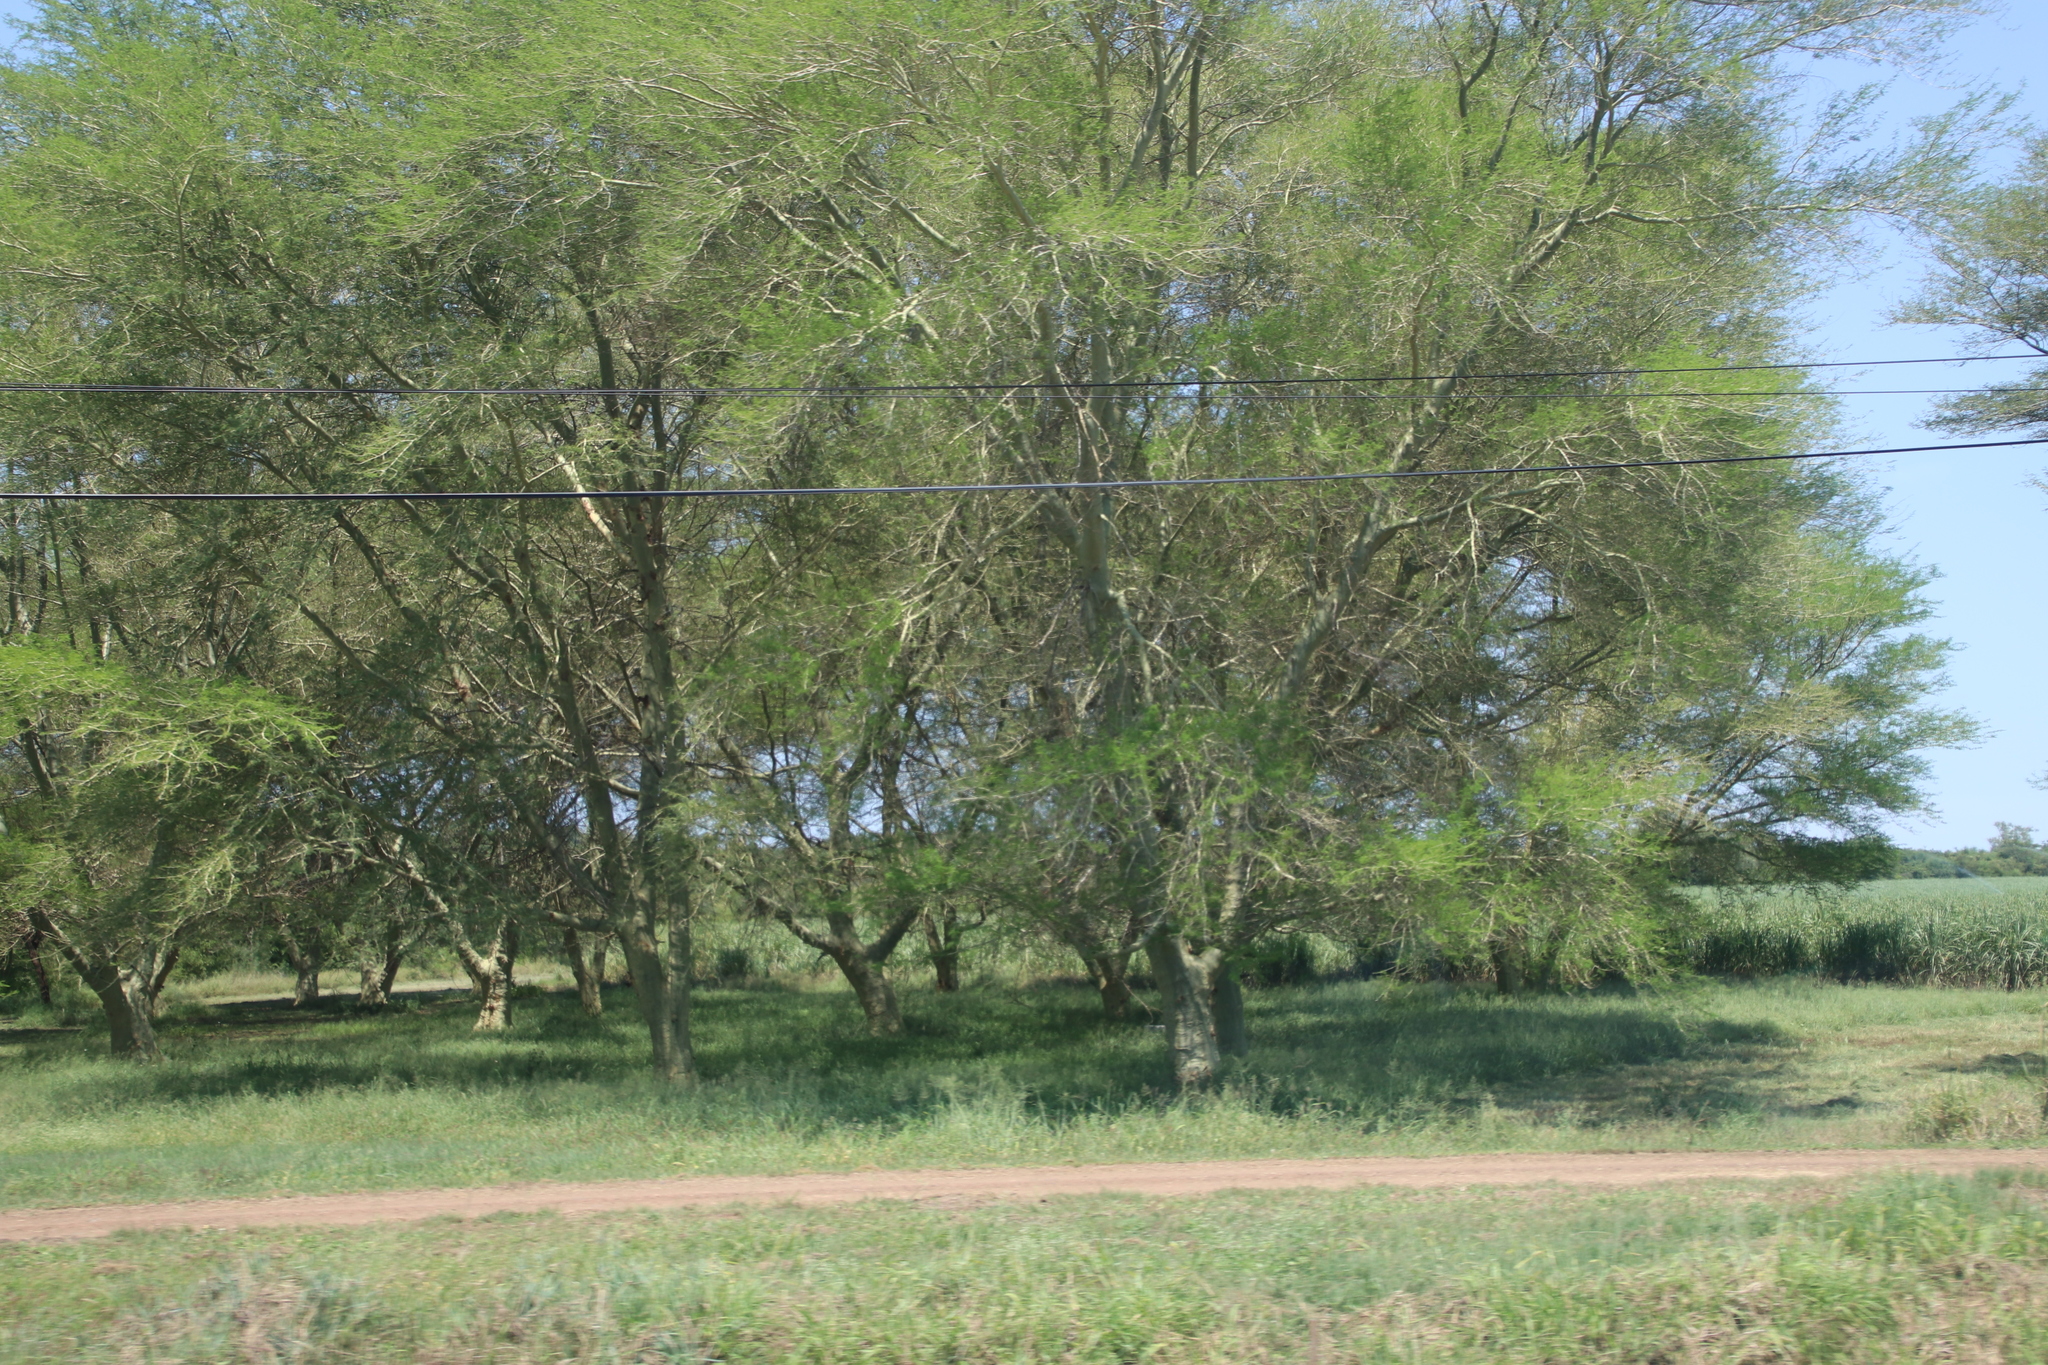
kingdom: Plantae
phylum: Tracheophyta
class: Magnoliopsida
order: Fabales
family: Fabaceae
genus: Vachellia
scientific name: Vachellia xanthophloea
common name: Fever tree
